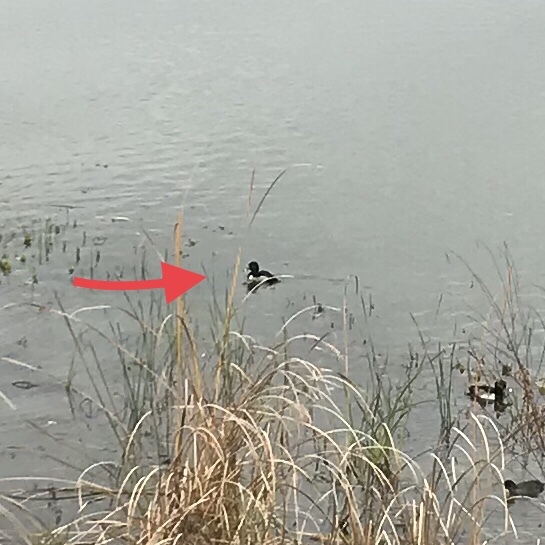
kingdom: Animalia
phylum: Chordata
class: Aves
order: Anseriformes
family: Anatidae
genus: Aythya
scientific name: Aythya collaris
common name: Ring-necked duck
